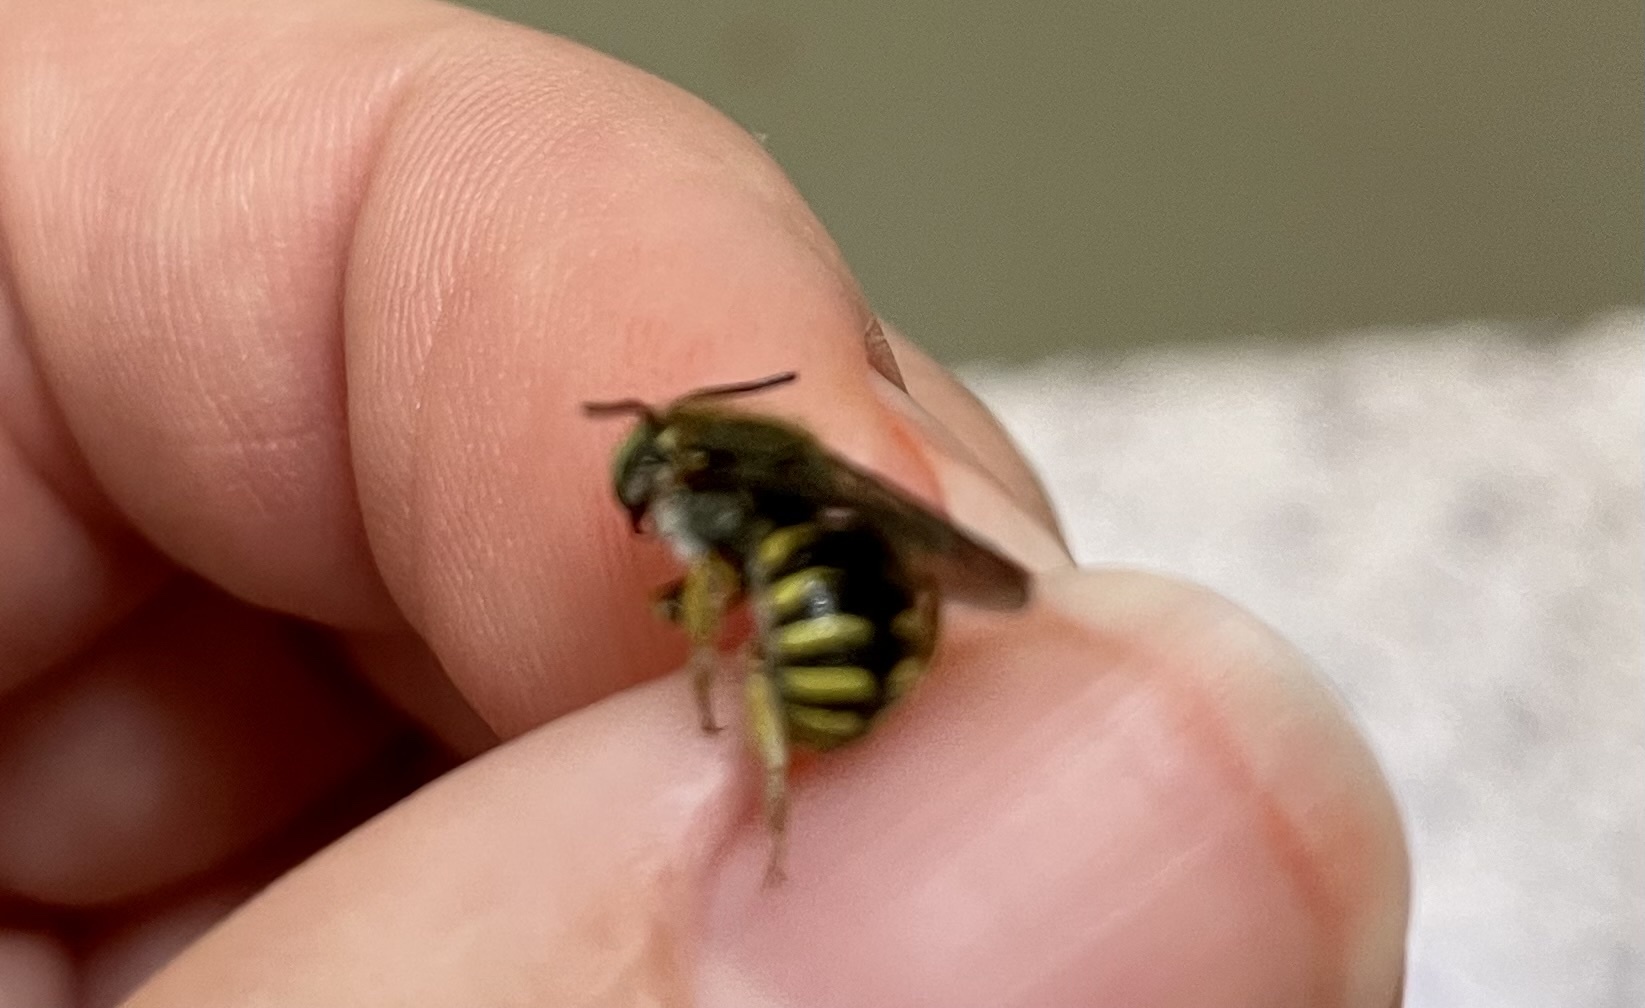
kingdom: Animalia
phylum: Arthropoda
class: Insecta
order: Hymenoptera
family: Megachilidae
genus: Anthidium
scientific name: Anthidium manicatum
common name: Wool carder bee
